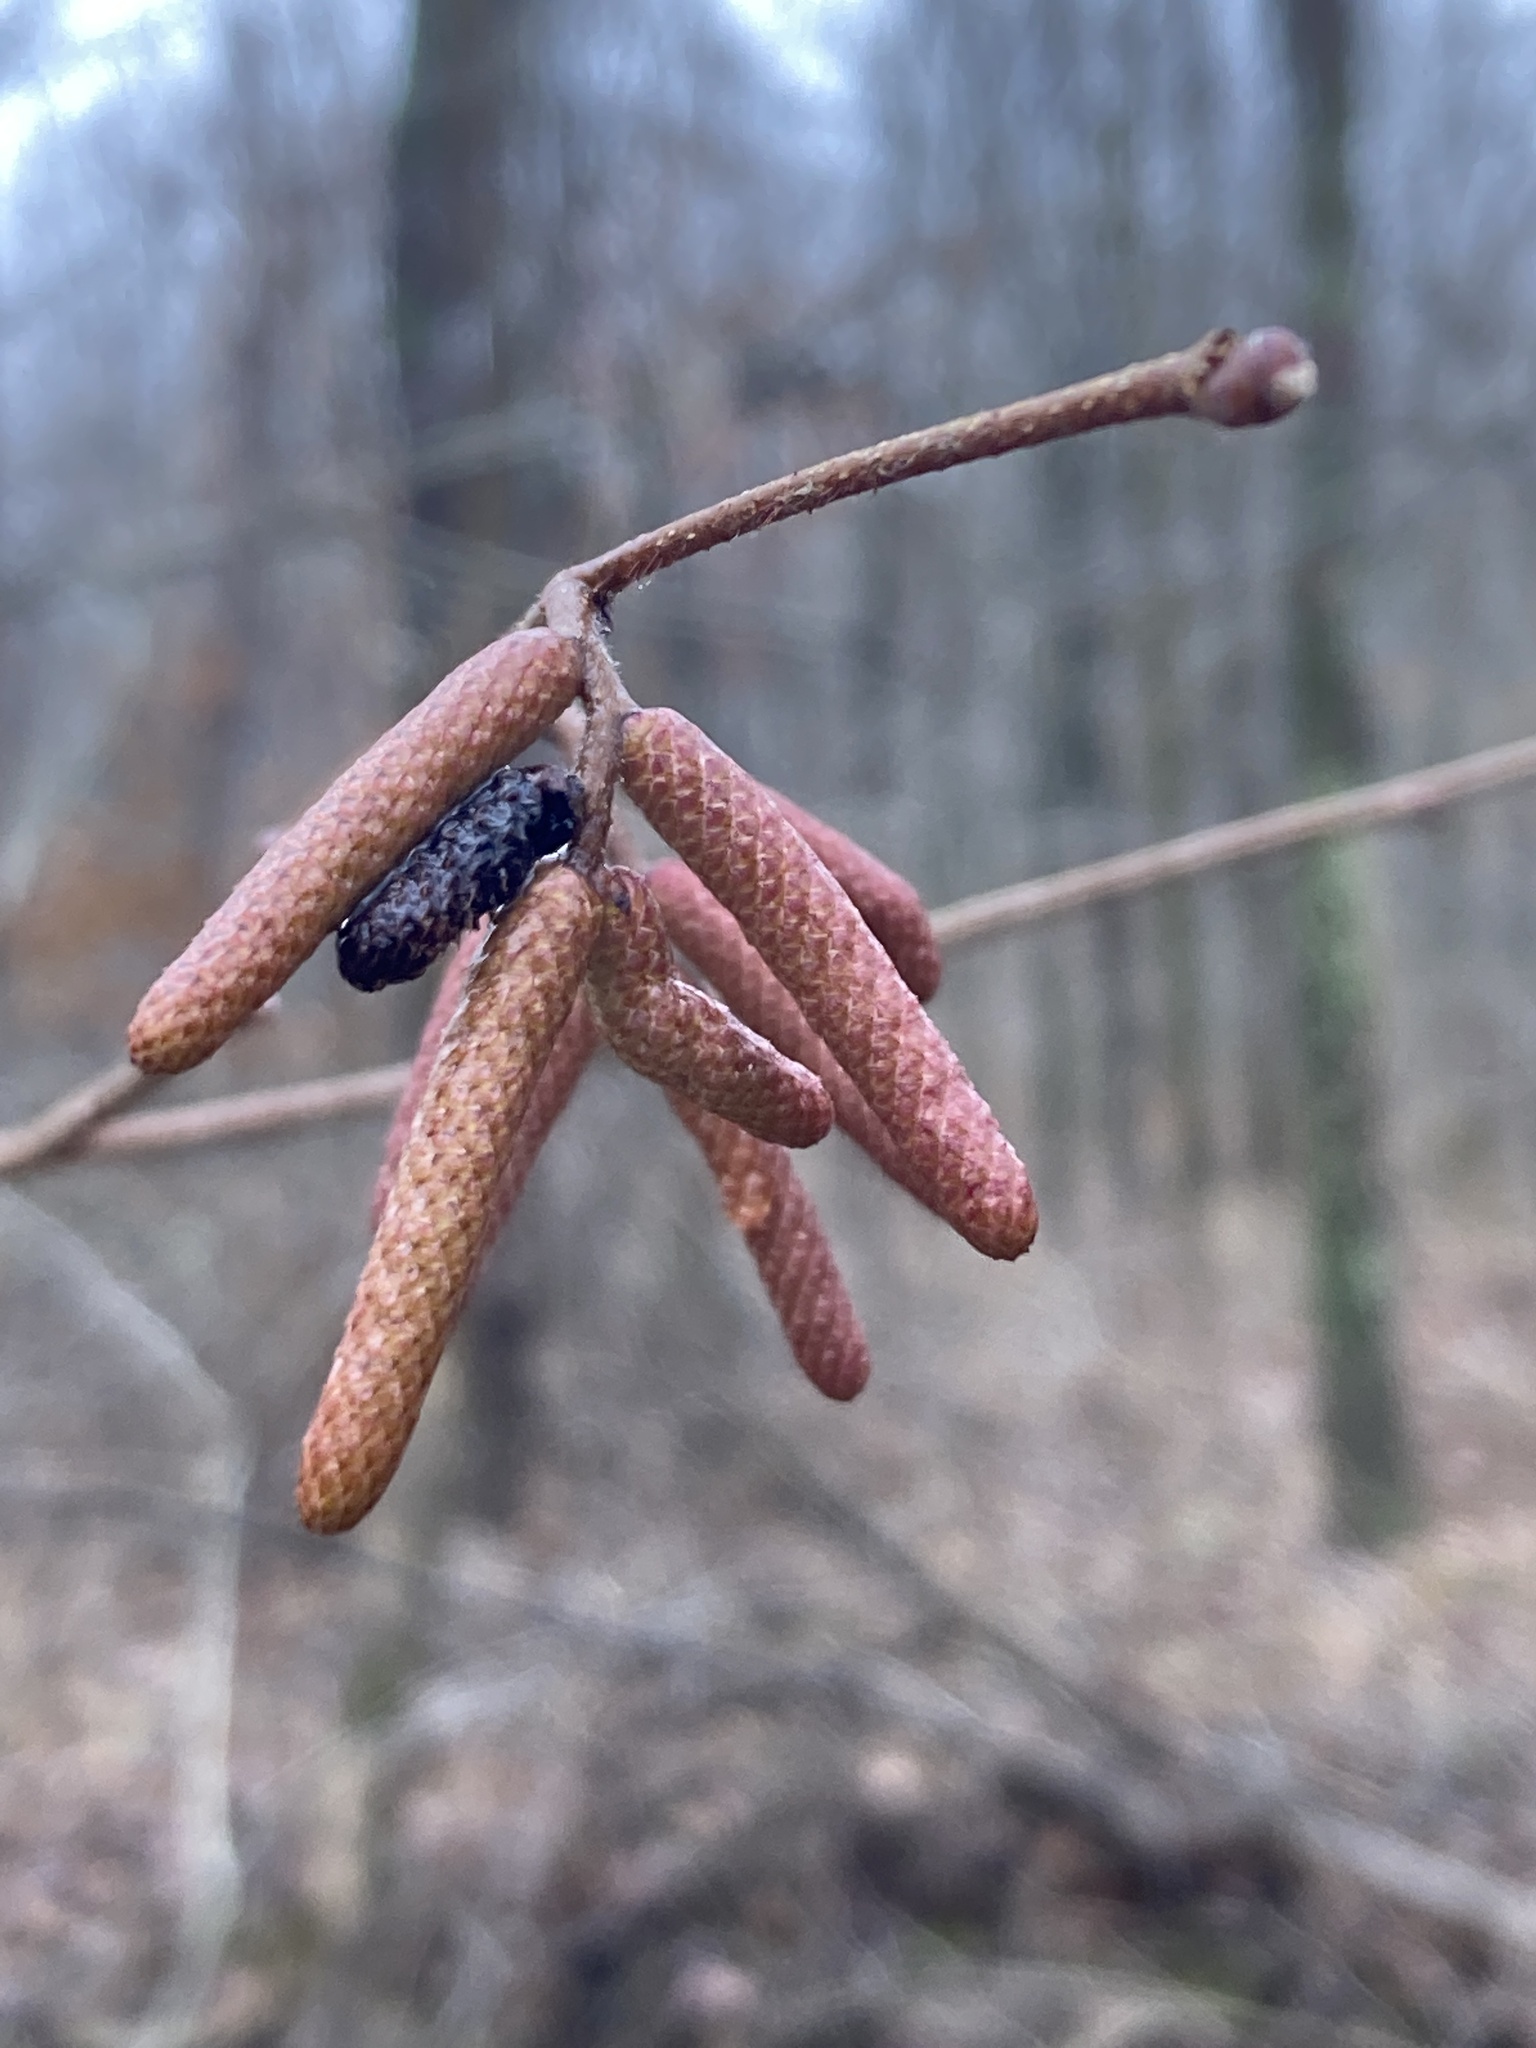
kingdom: Plantae
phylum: Tracheophyta
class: Magnoliopsida
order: Fagales
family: Betulaceae
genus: Corylus
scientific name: Corylus americana
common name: American hazel
